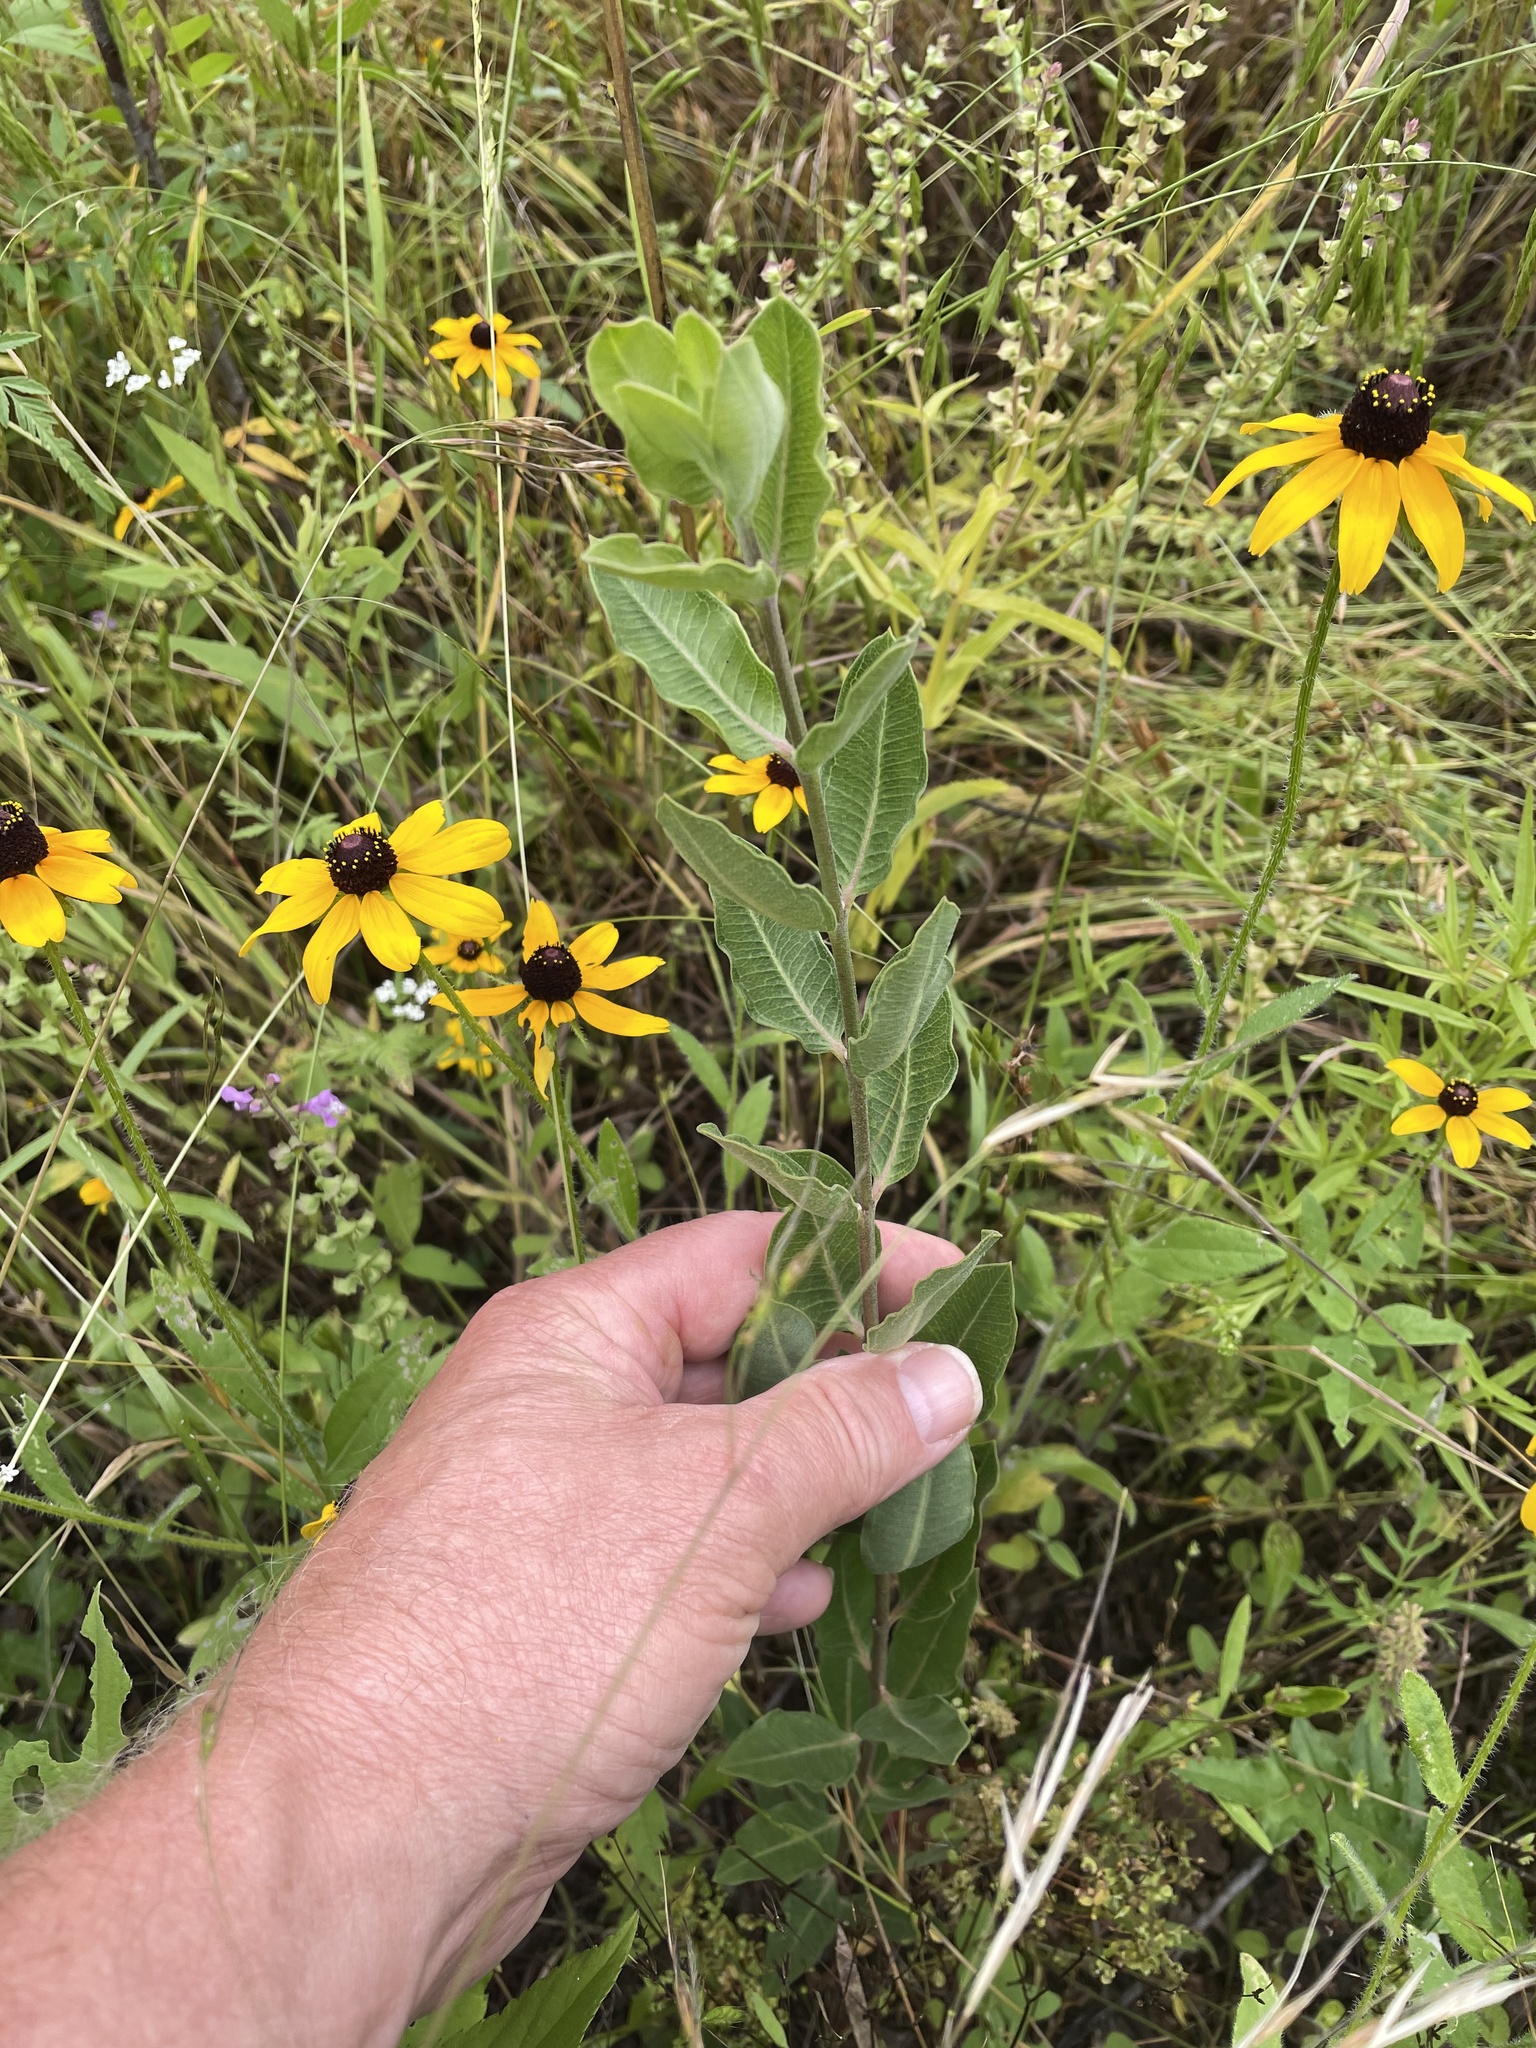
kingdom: Plantae
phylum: Tracheophyta
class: Magnoliopsida
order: Gentianales
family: Apocynaceae
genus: Asclepias
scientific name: Asclepias viridiflora
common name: Green comet milkweed
